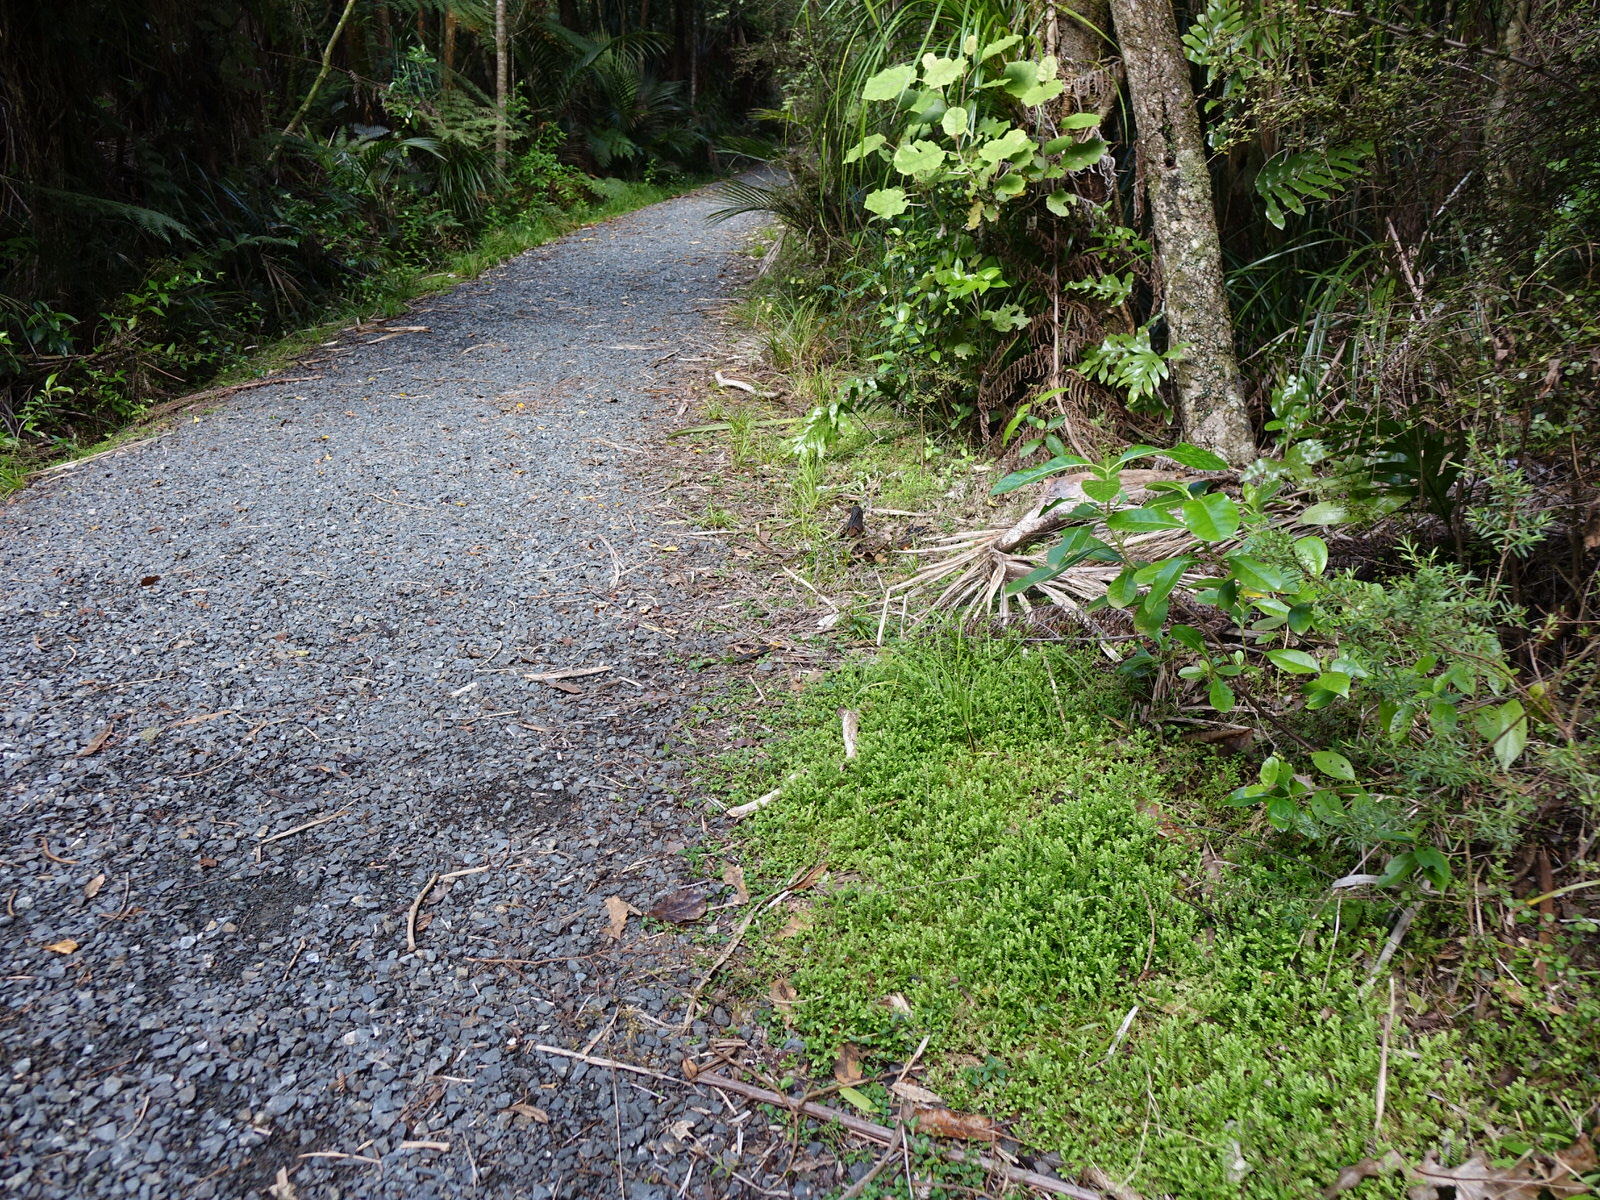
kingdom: Plantae
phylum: Tracheophyta
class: Lycopodiopsida
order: Selaginellales
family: Selaginellaceae
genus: Selaginella
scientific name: Selaginella kraussiana
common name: Krauss' spikemoss
